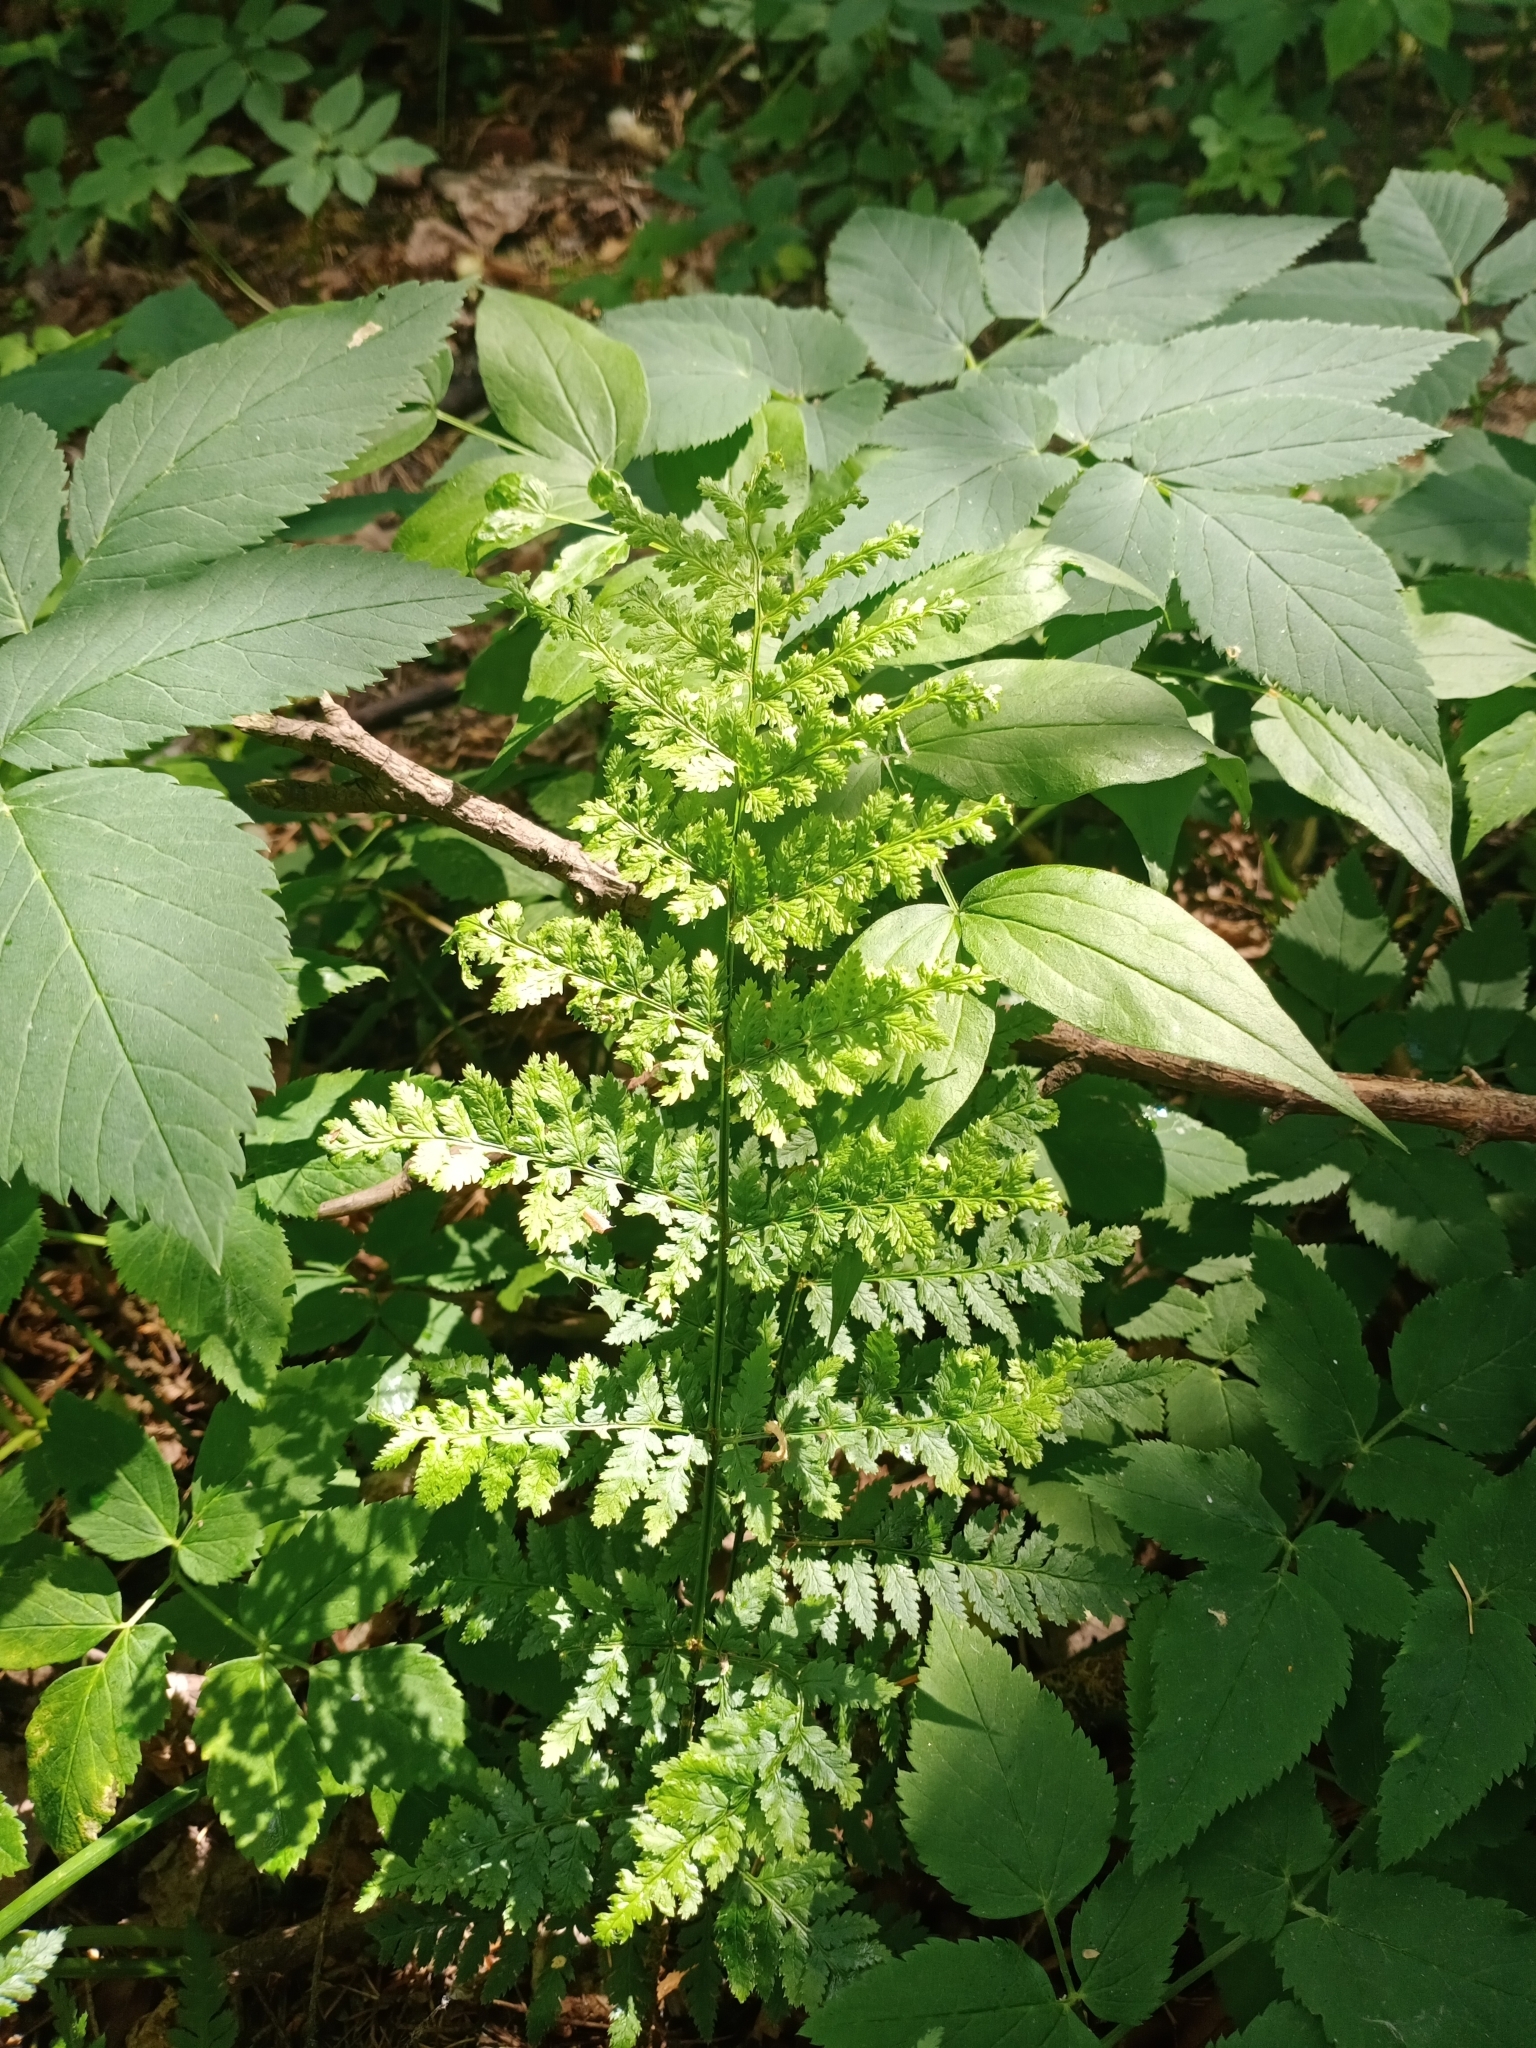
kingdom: Plantae
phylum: Tracheophyta
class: Polypodiopsida
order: Polypodiales
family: Dryopteridaceae
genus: Dryopteris
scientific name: Dryopteris carthusiana
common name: Narrow buckler-fern
